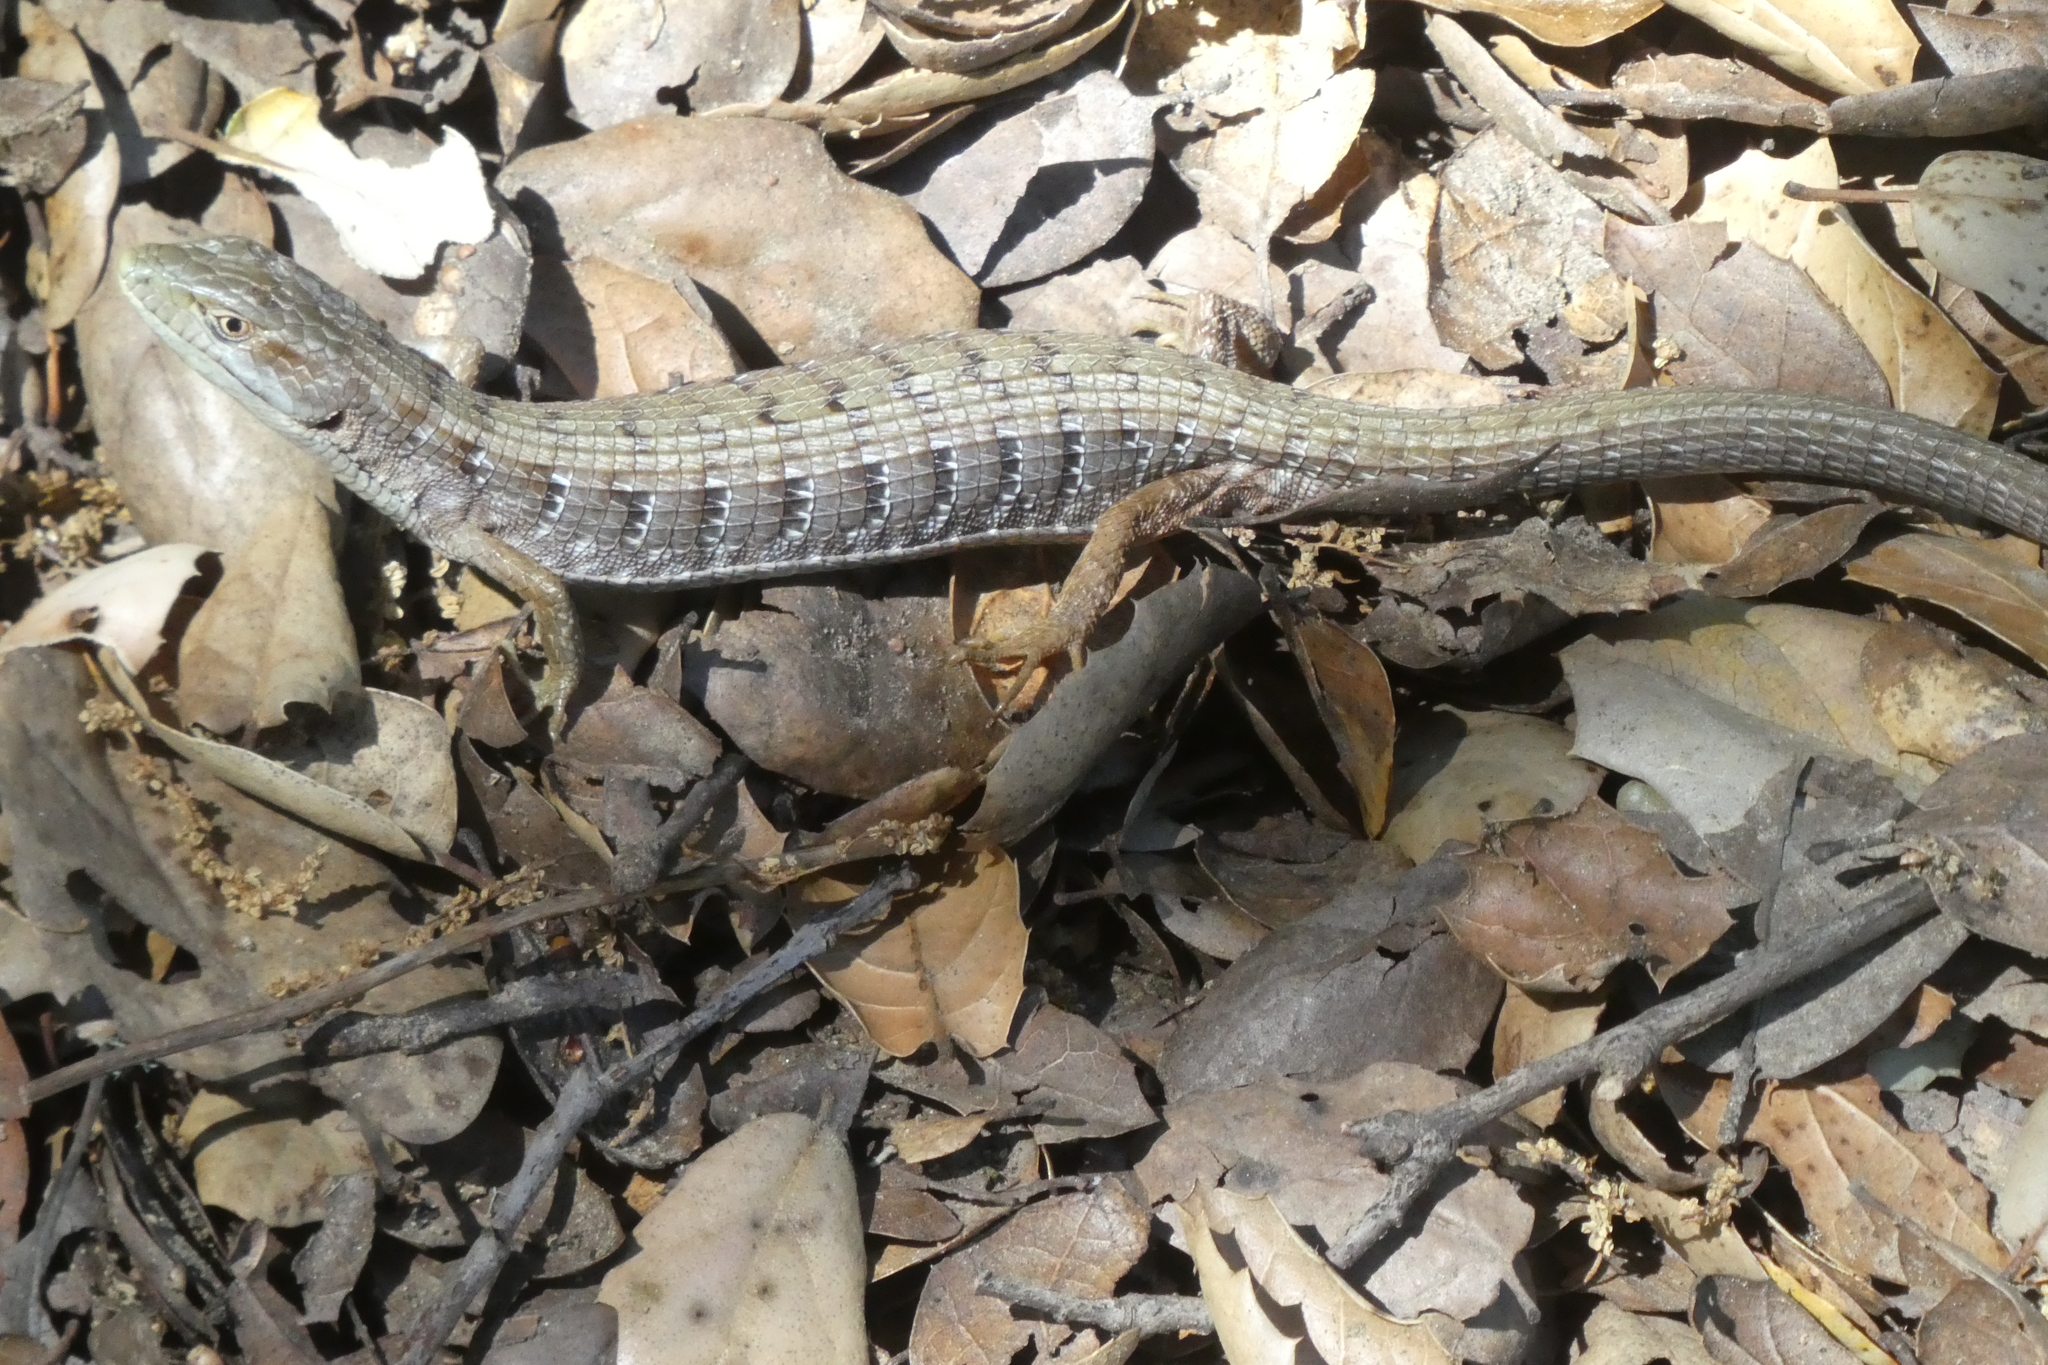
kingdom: Animalia
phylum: Chordata
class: Squamata
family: Anguidae
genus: Elgaria
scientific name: Elgaria multicarinata
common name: Southern alligator lizard
